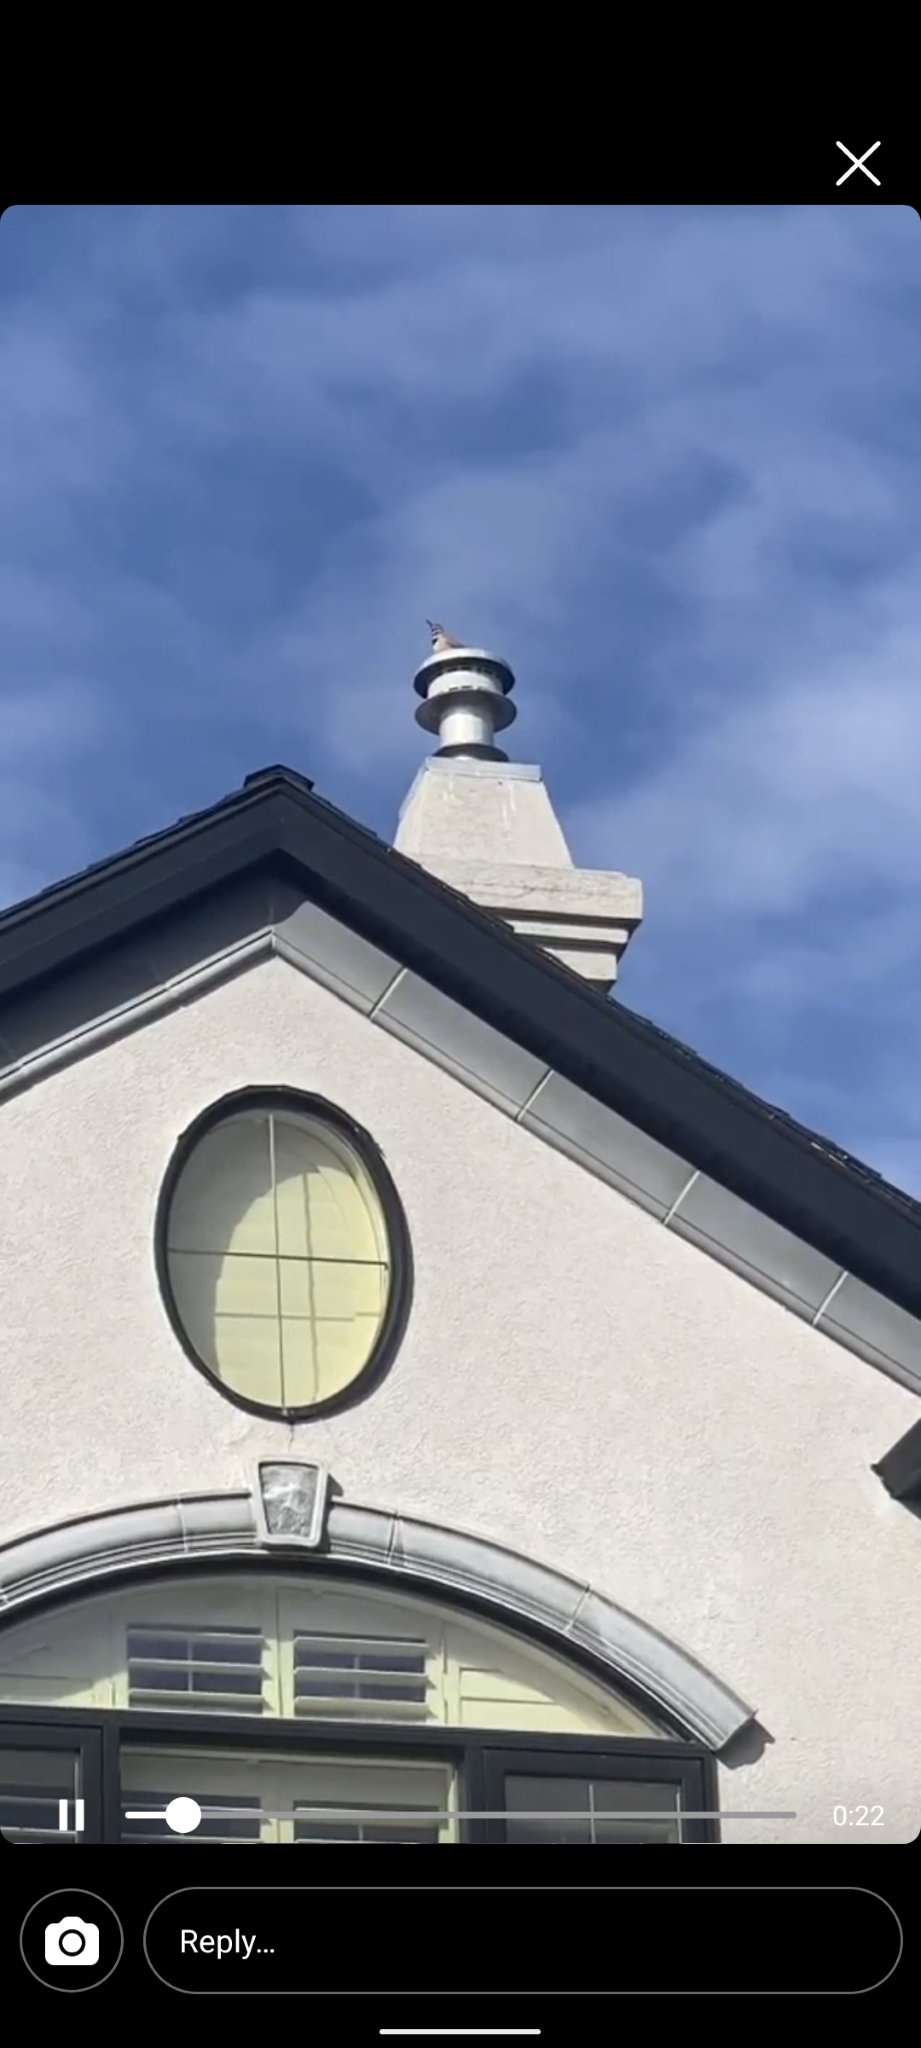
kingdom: Animalia
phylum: Chordata
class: Aves
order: Piciformes
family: Picidae
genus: Colaptes
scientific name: Colaptes auratus
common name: Northern flicker
